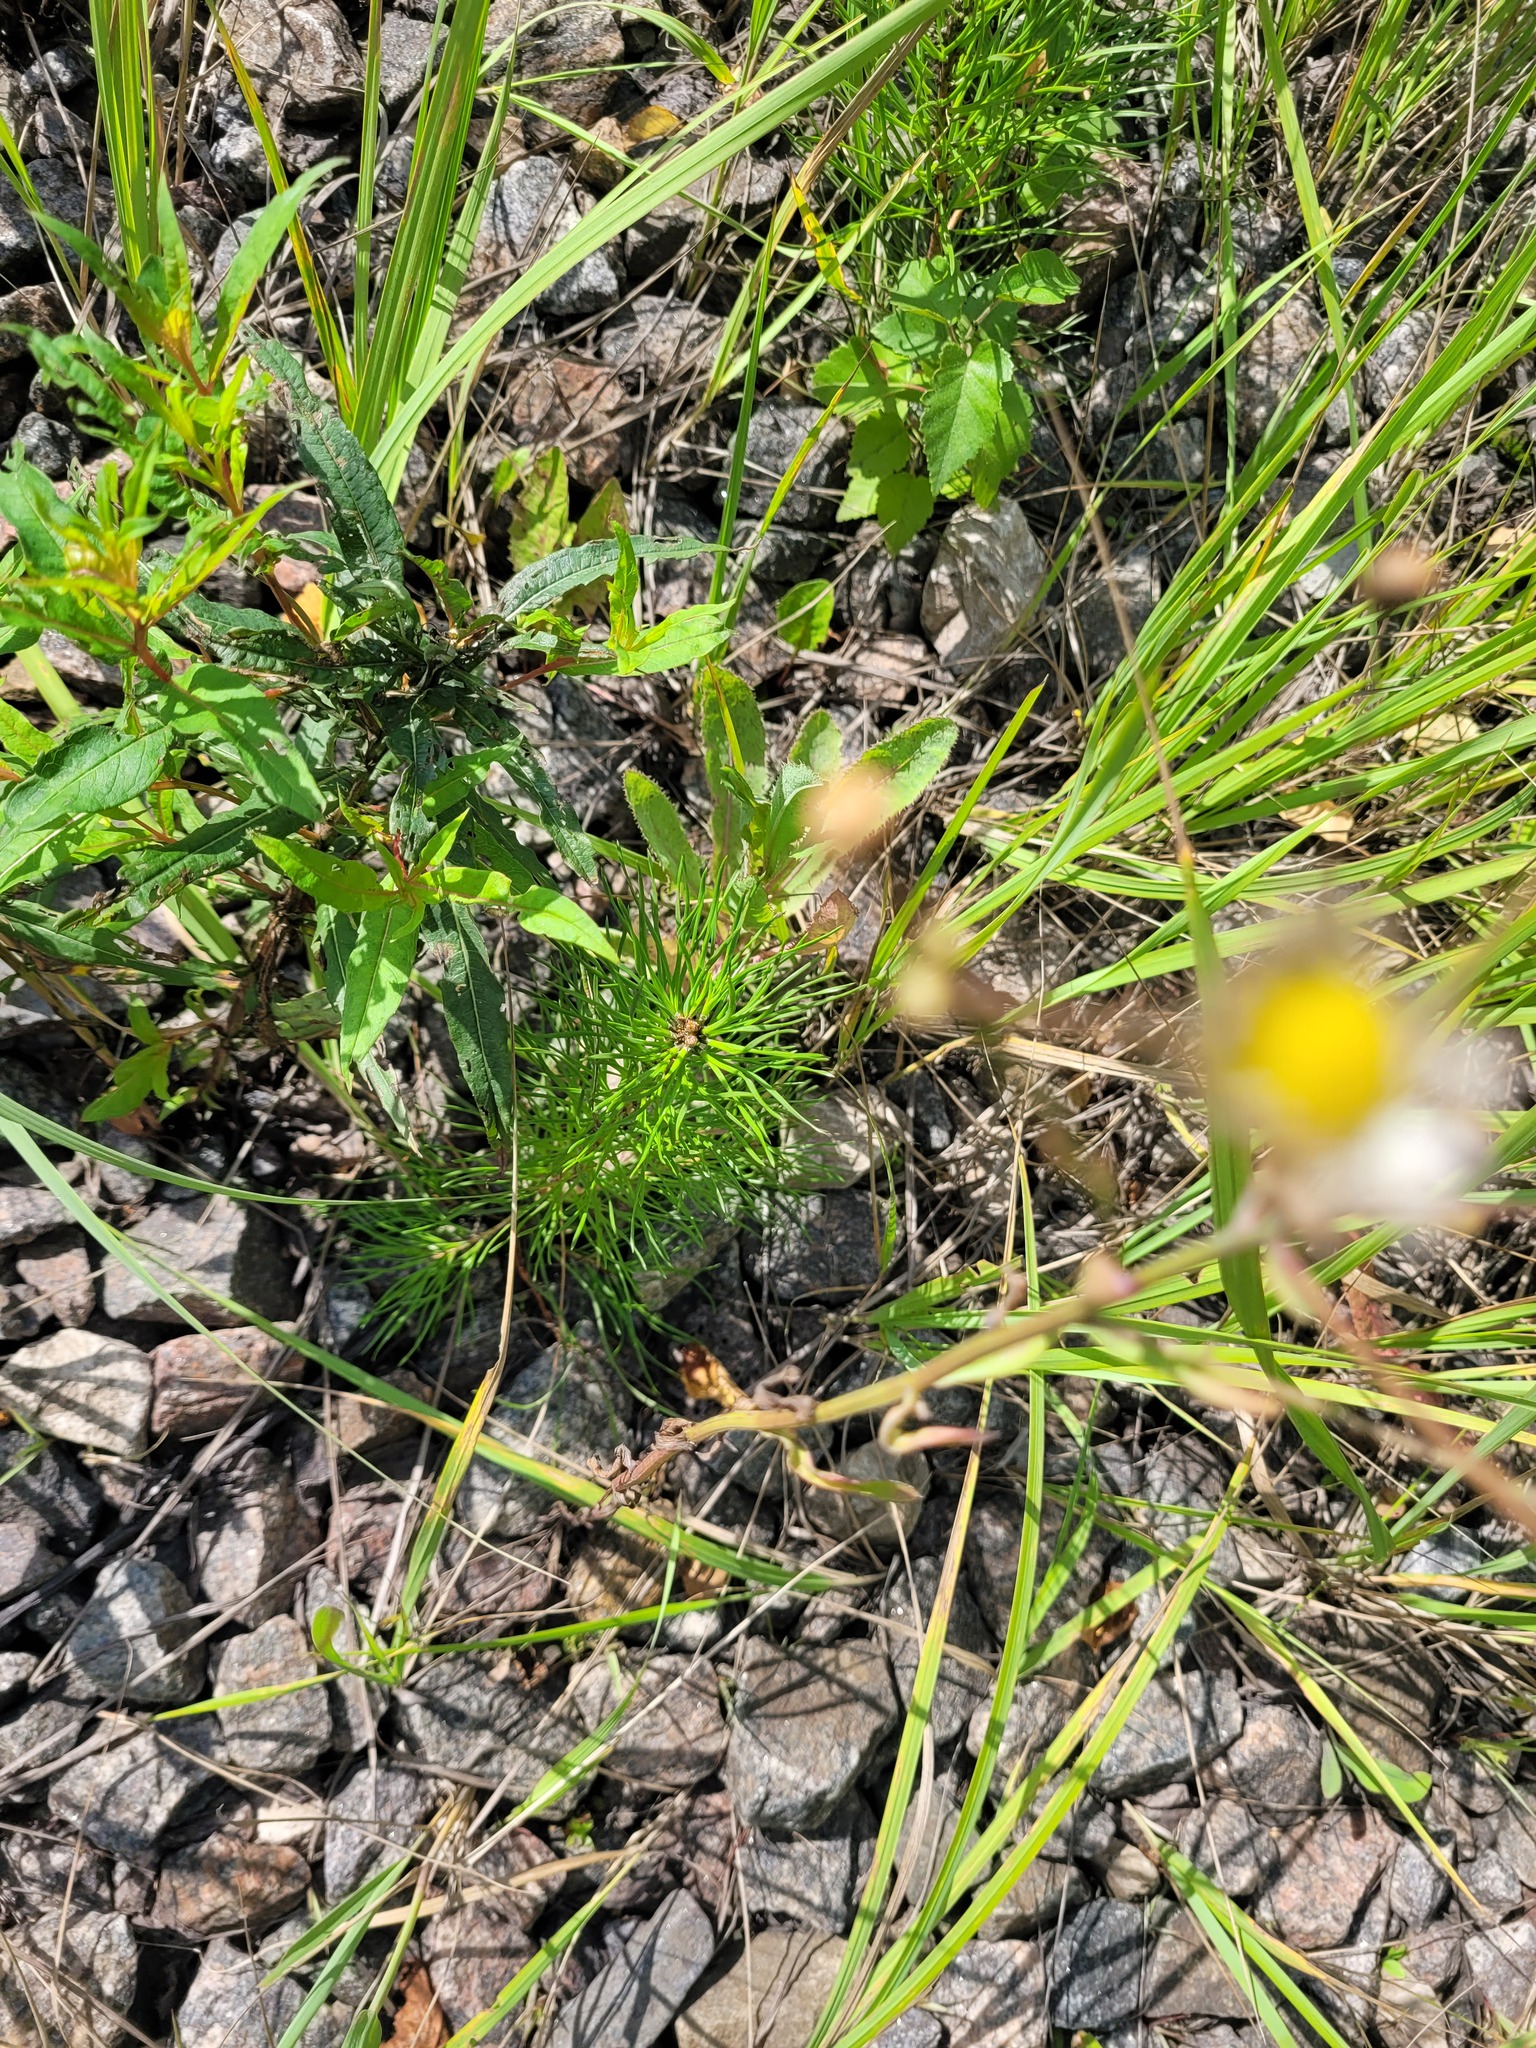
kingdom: Plantae
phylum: Tracheophyta
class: Pinopsida
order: Pinales
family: Pinaceae
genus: Pinus
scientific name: Pinus sylvestris
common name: Scots pine
